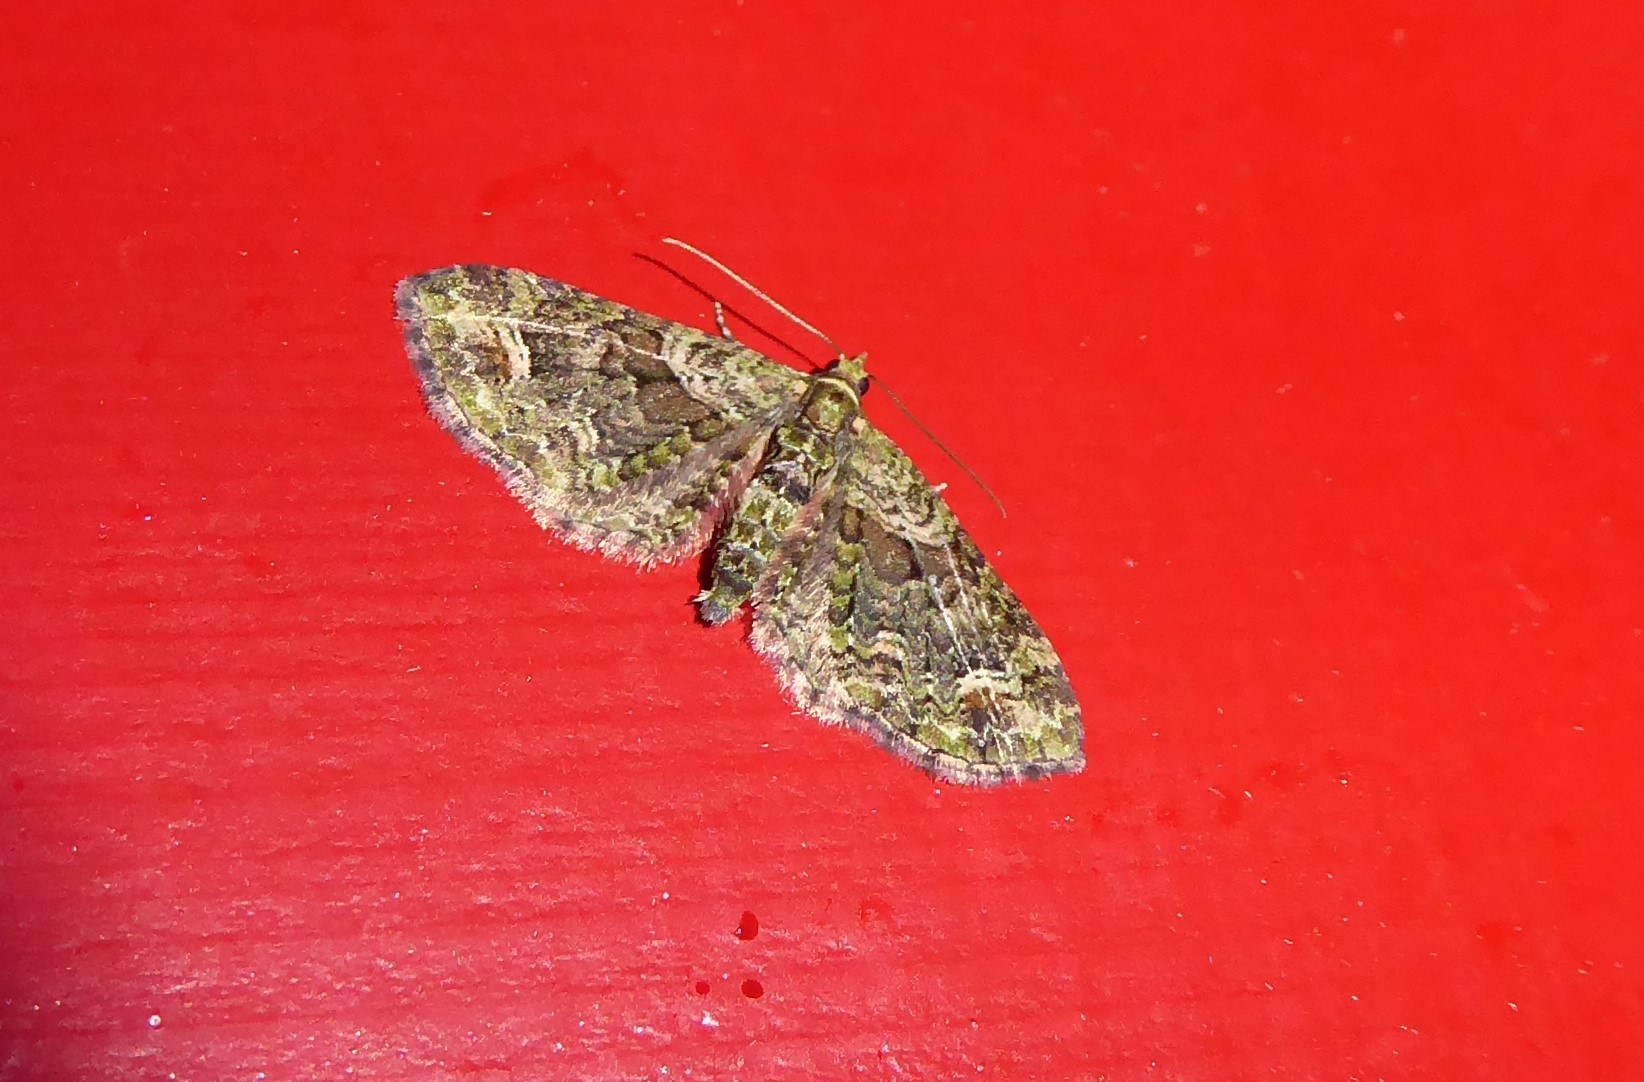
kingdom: Animalia
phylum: Arthropoda
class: Insecta
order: Lepidoptera
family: Geometridae
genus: Idaea
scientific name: Idaea mutanda
